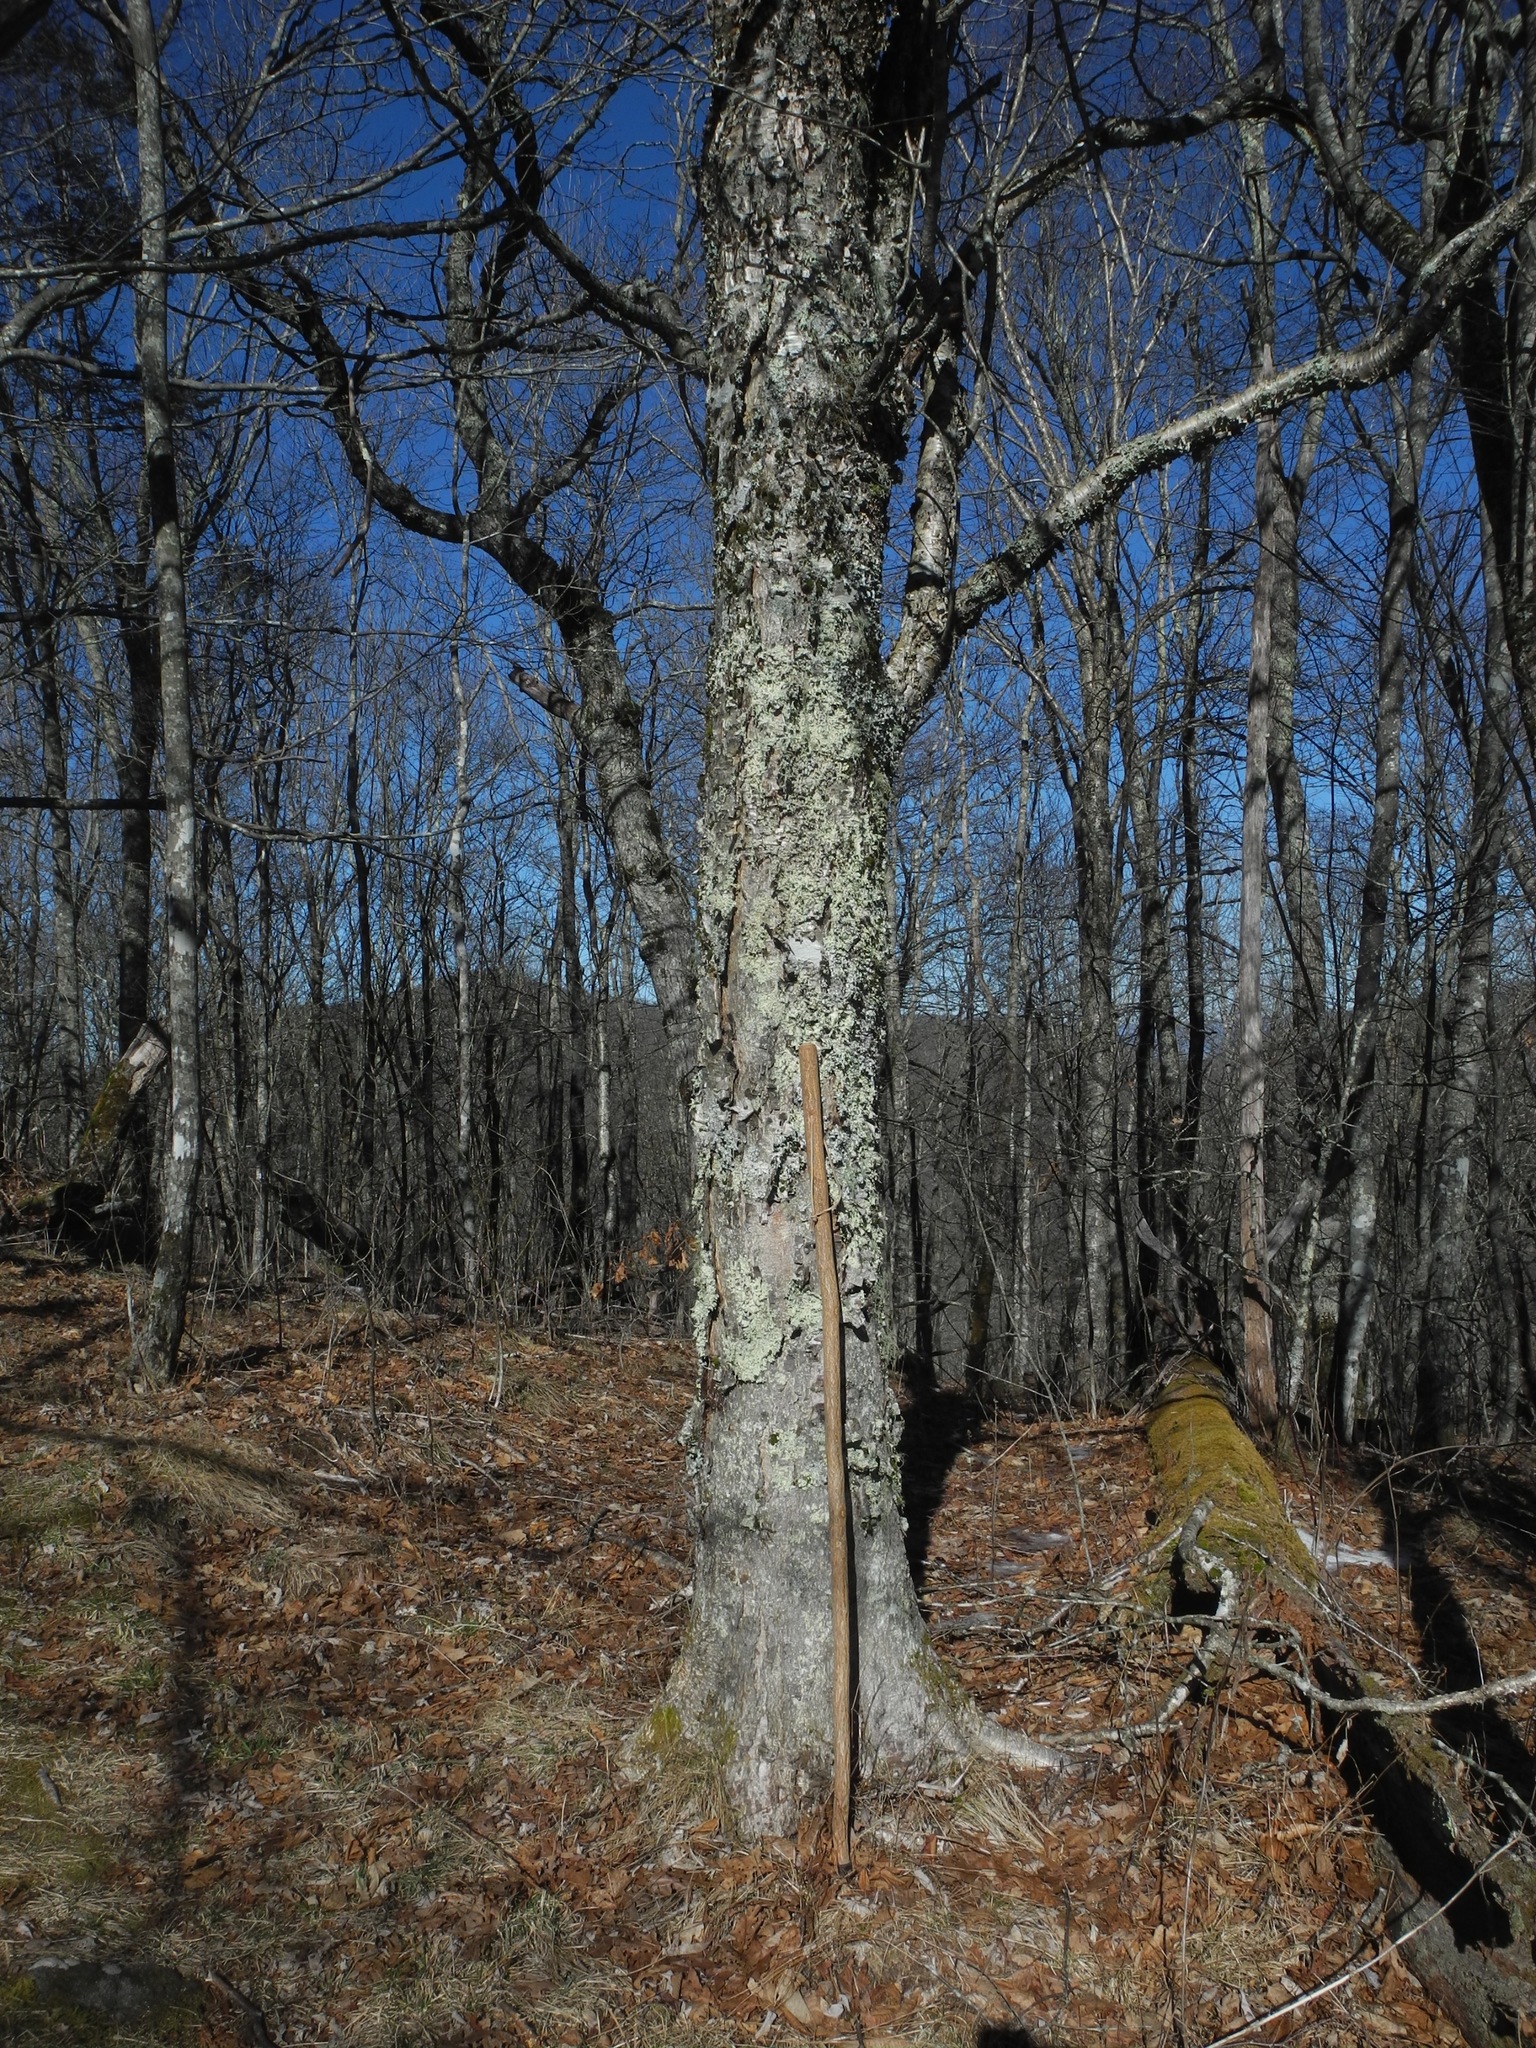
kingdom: Plantae
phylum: Tracheophyta
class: Magnoliopsida
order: Fagales
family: Betulaceae
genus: Betula
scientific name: Betula alleghaniensis
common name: Yellow birch
